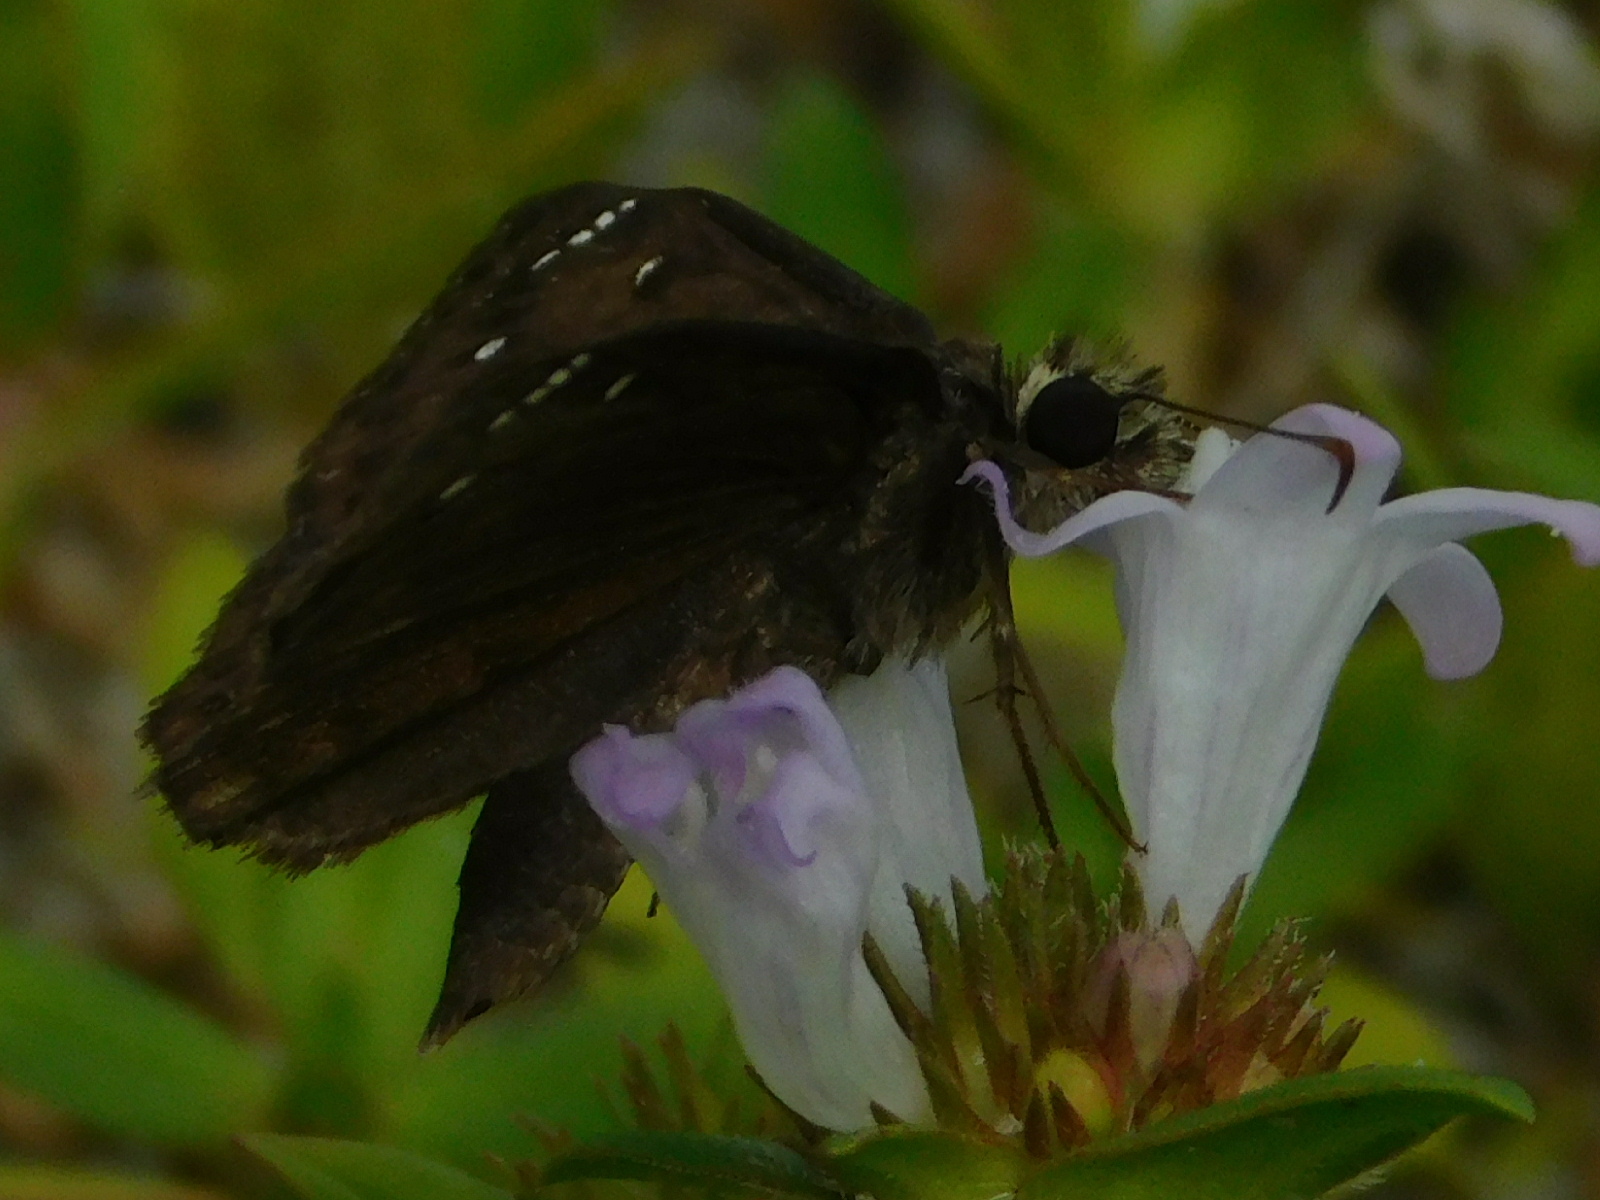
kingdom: Plantae
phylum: Tracheophyta
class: Magnoliopsida
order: Gentianales
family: Rubiaceae
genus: Richardia
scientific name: Richardia grandiflora
